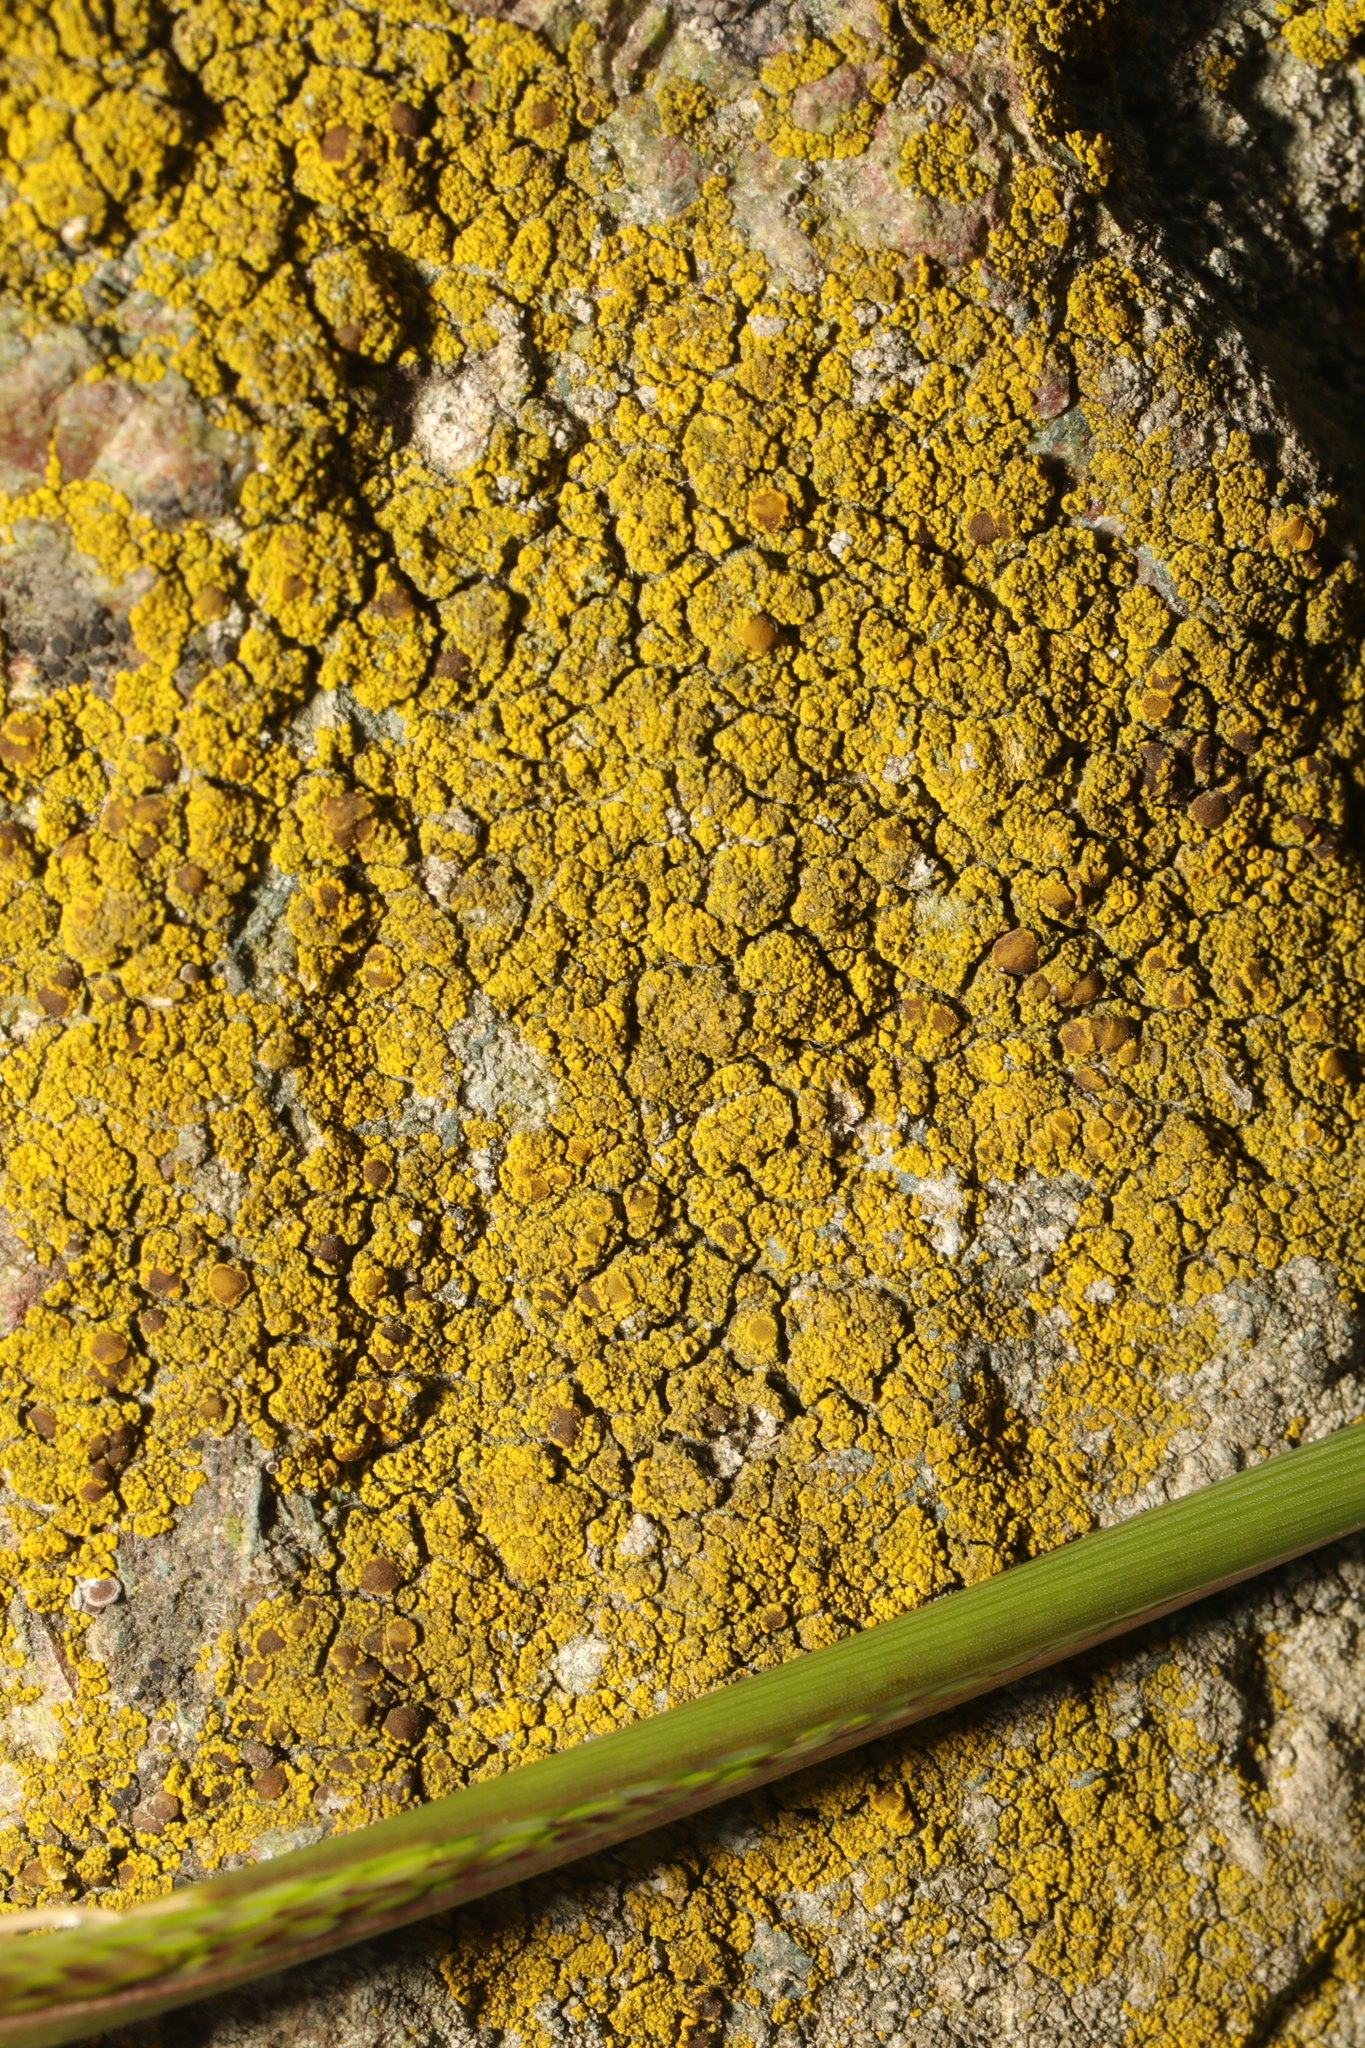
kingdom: Fungi
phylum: Ascomycota
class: Candelariomycetes
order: Candelariales
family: Candelariaceae
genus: Candelariella
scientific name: Candelariella vitellina
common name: Common goldspeck
